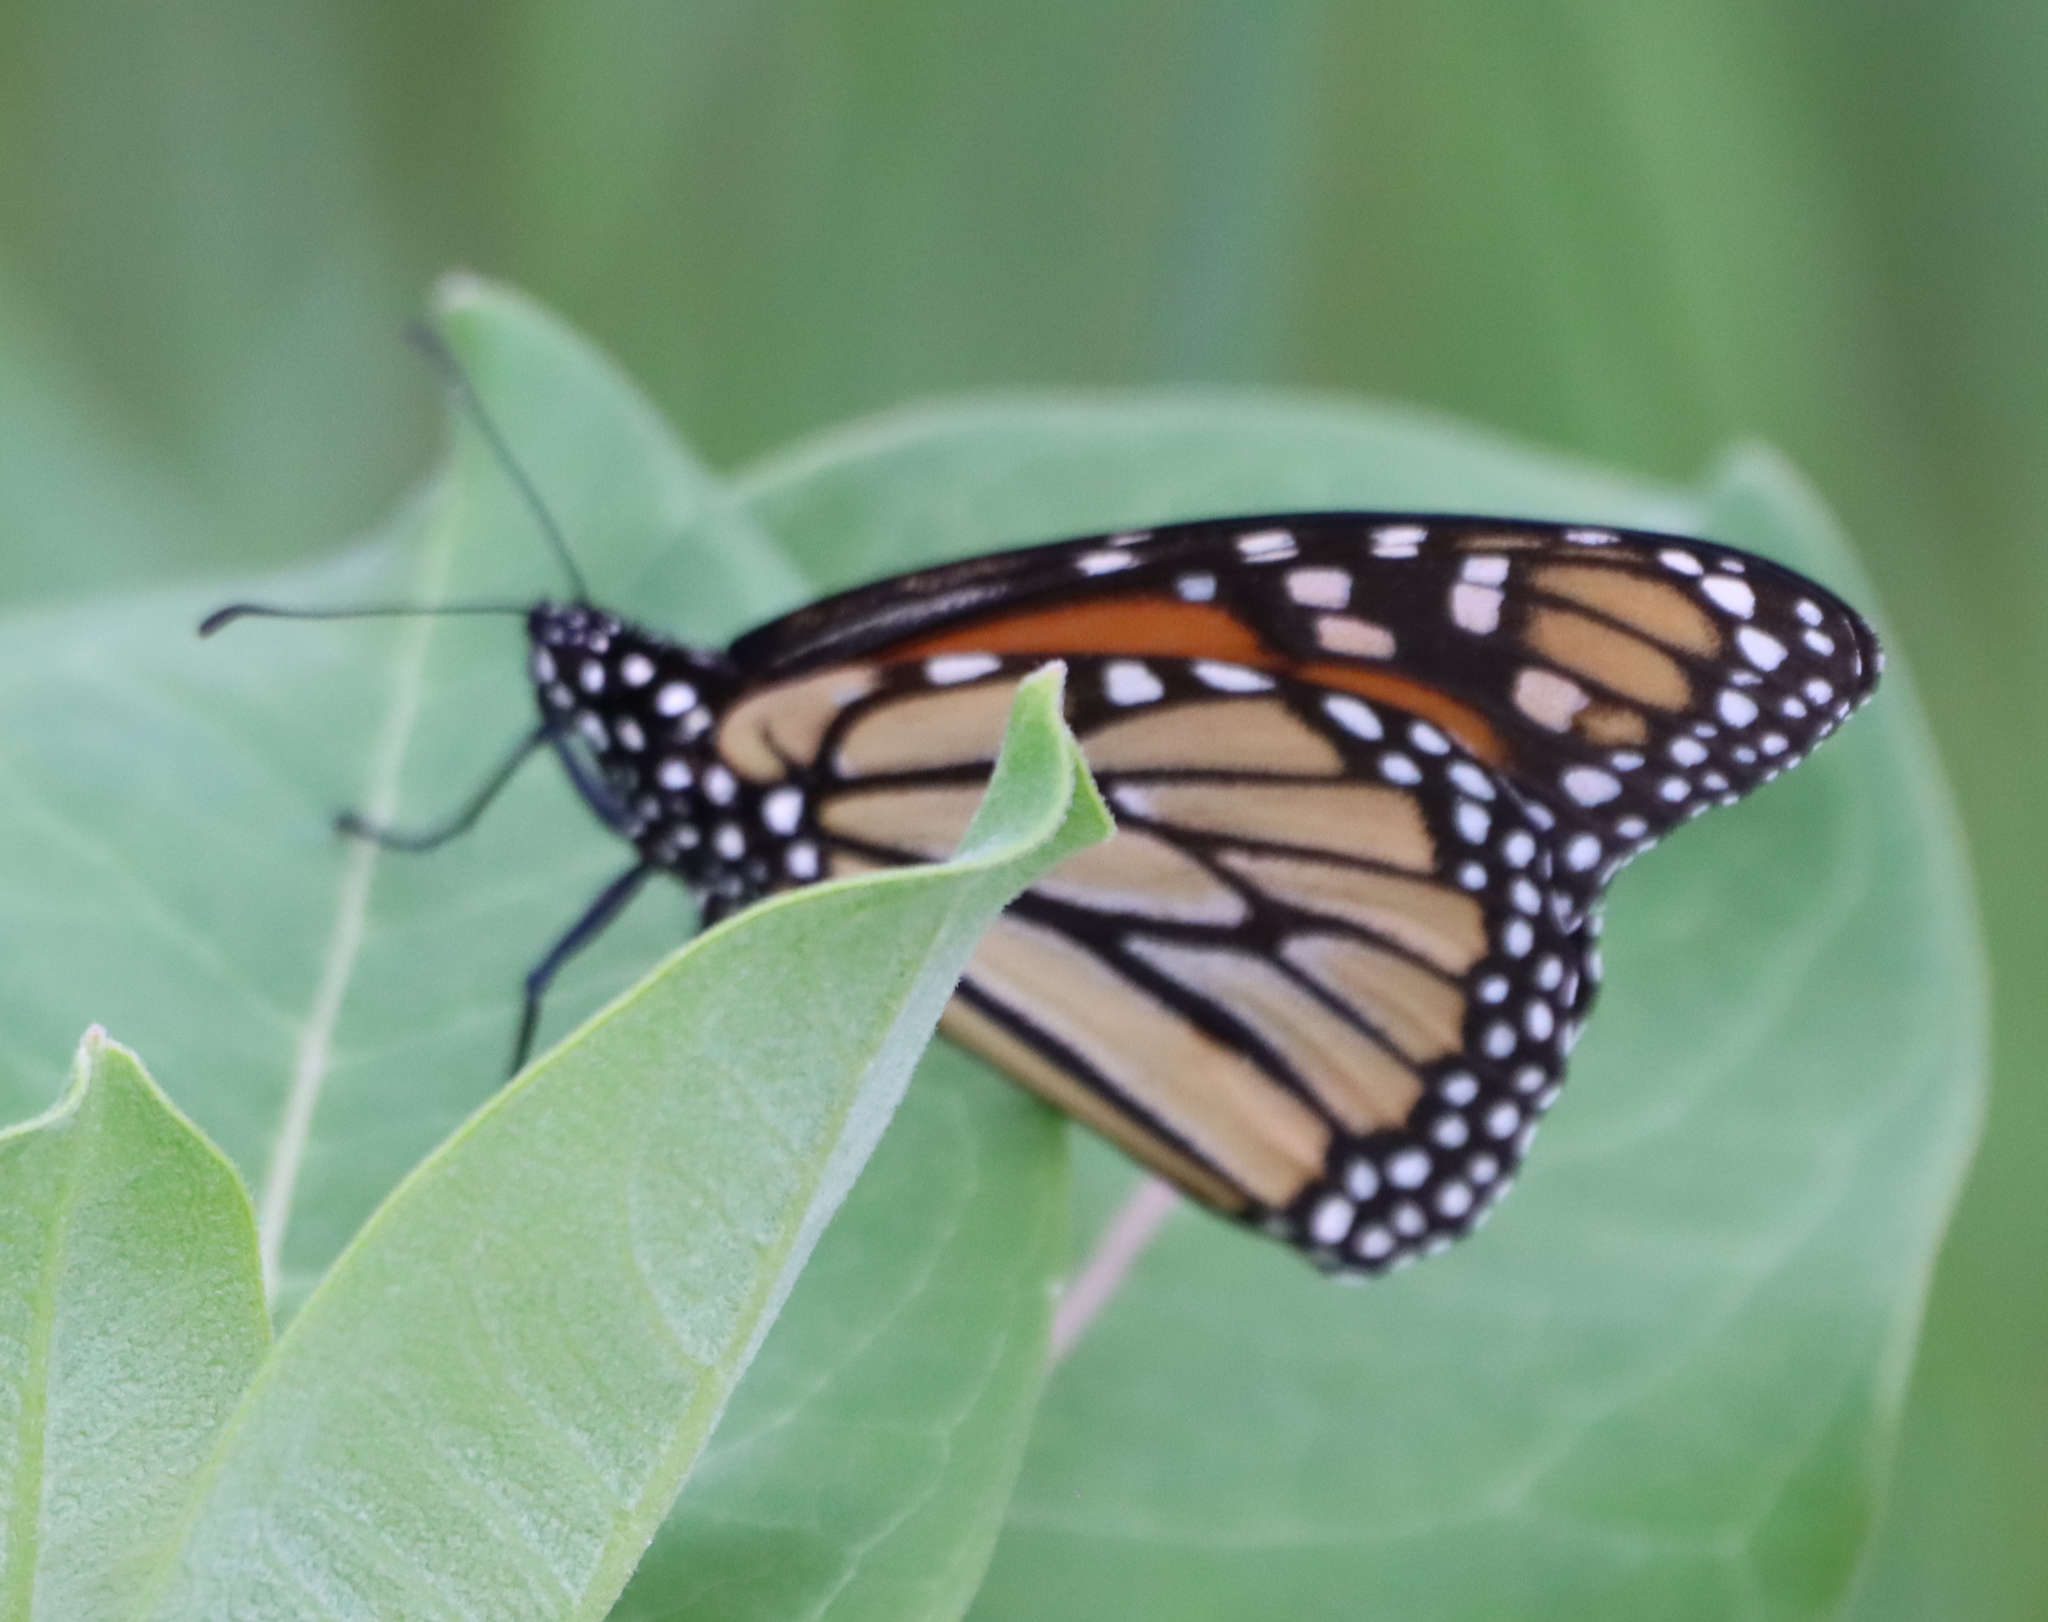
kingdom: Animalia
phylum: Arthropoda
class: Insecta
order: Lepidoptera
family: Nymphalidae
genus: Danaus
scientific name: Danaus plexippus
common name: Monarch
